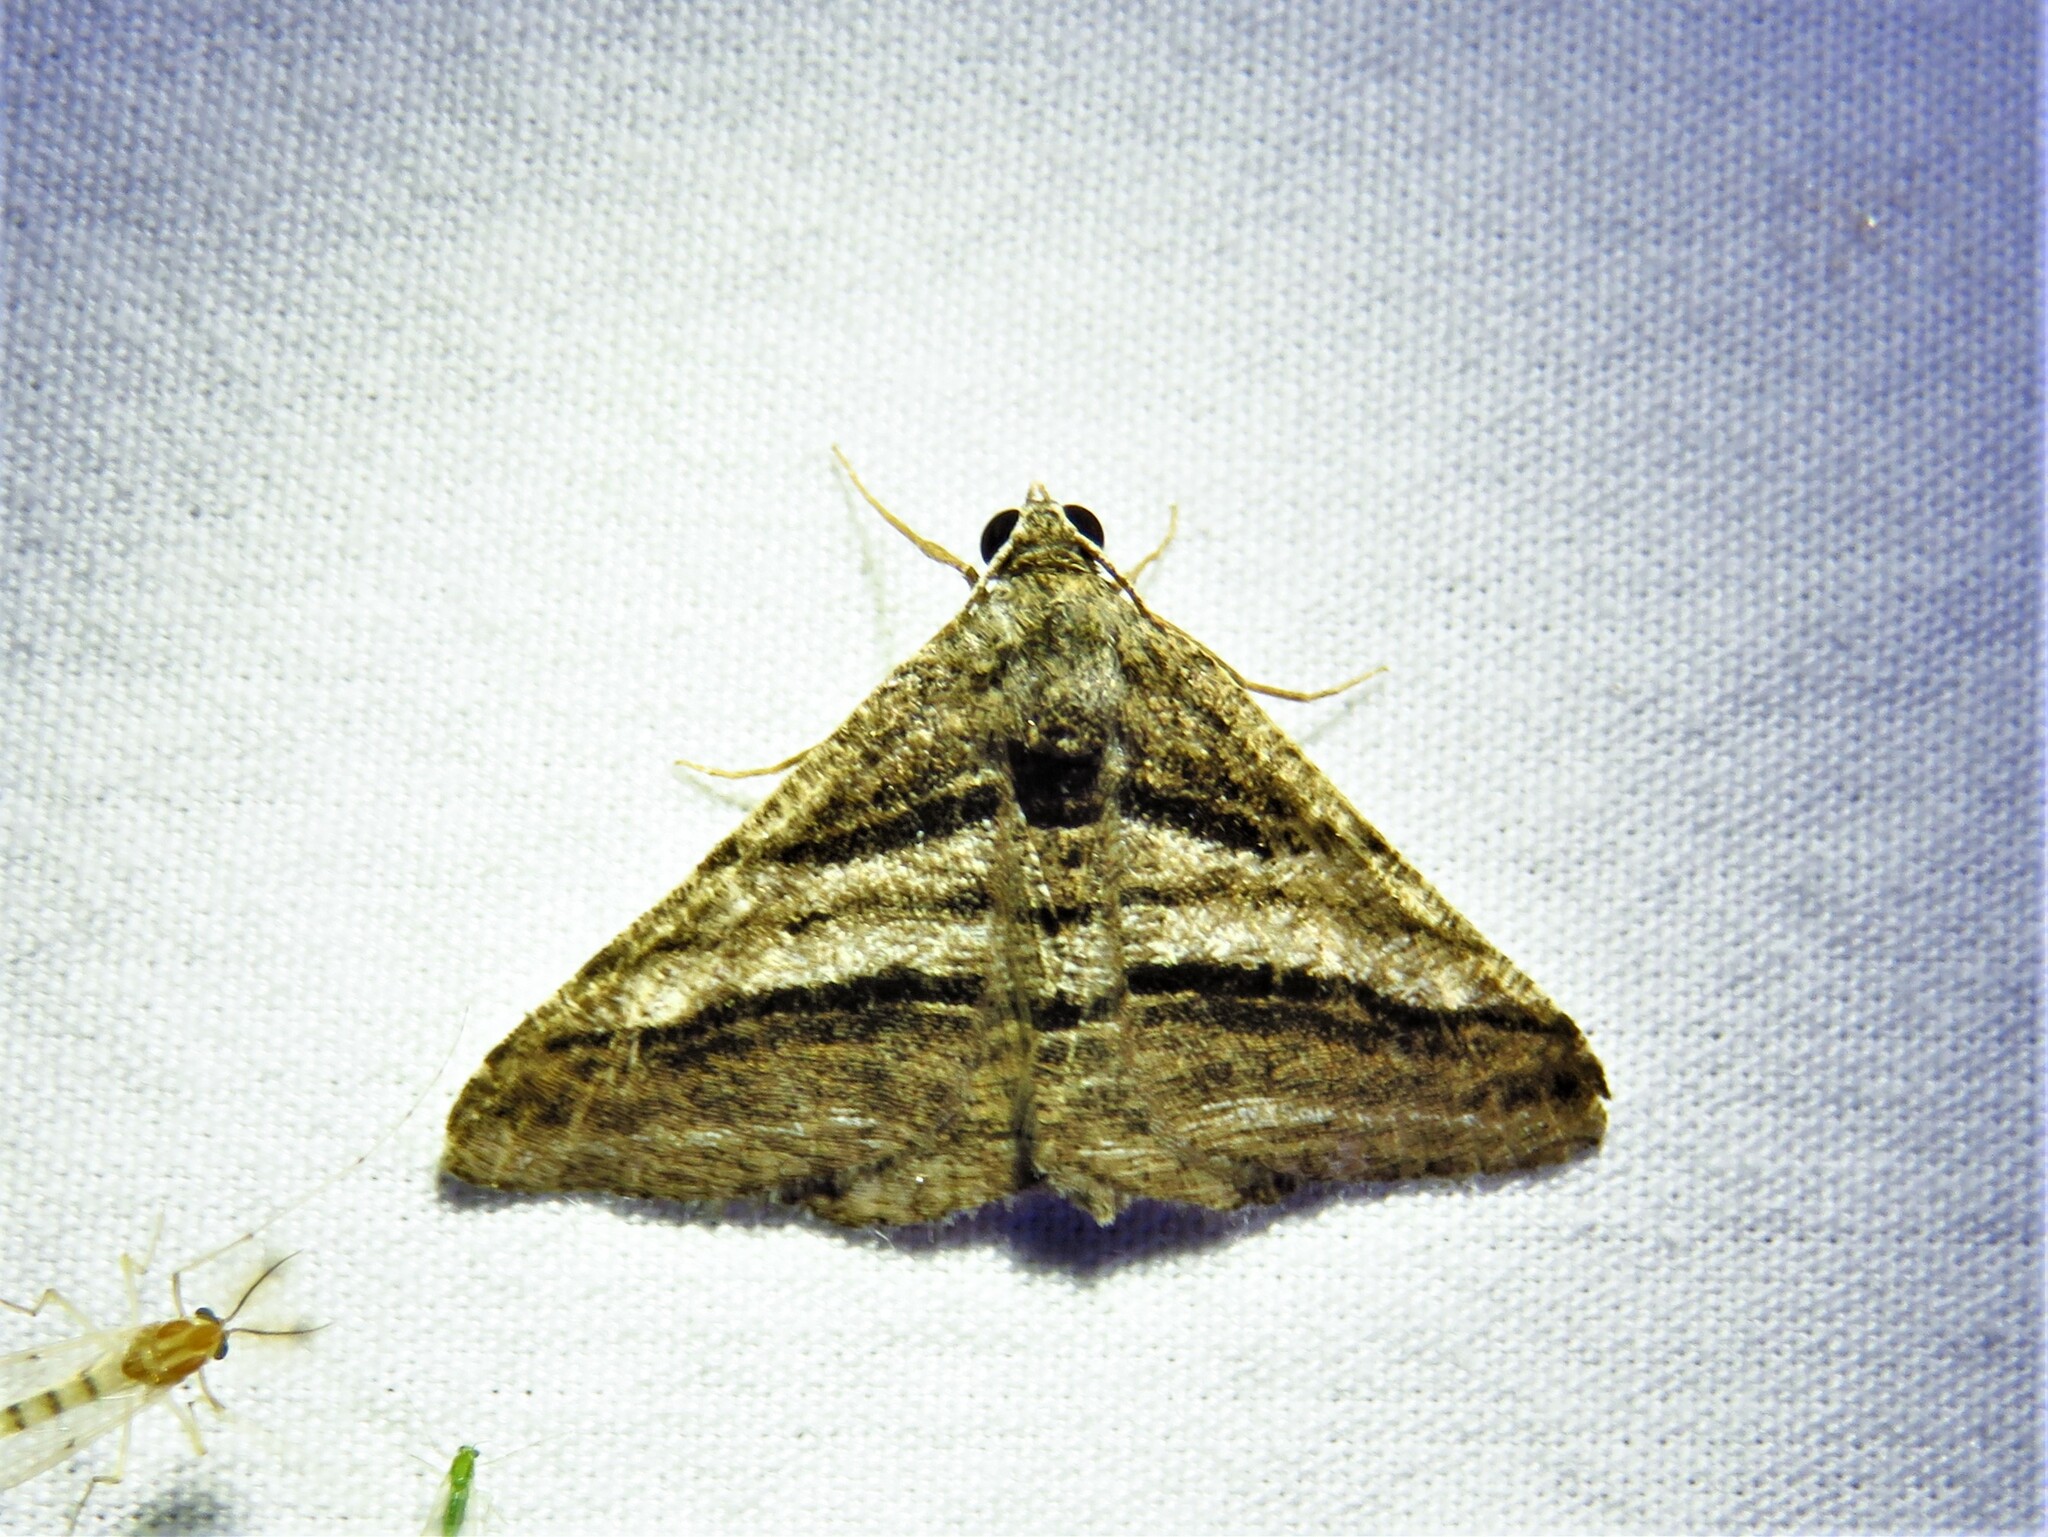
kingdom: Animalia
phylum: Arthropoda
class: Insecta
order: Lepidoptera
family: Geometridae
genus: Digrammia
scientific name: Digrammia atrofasciata
